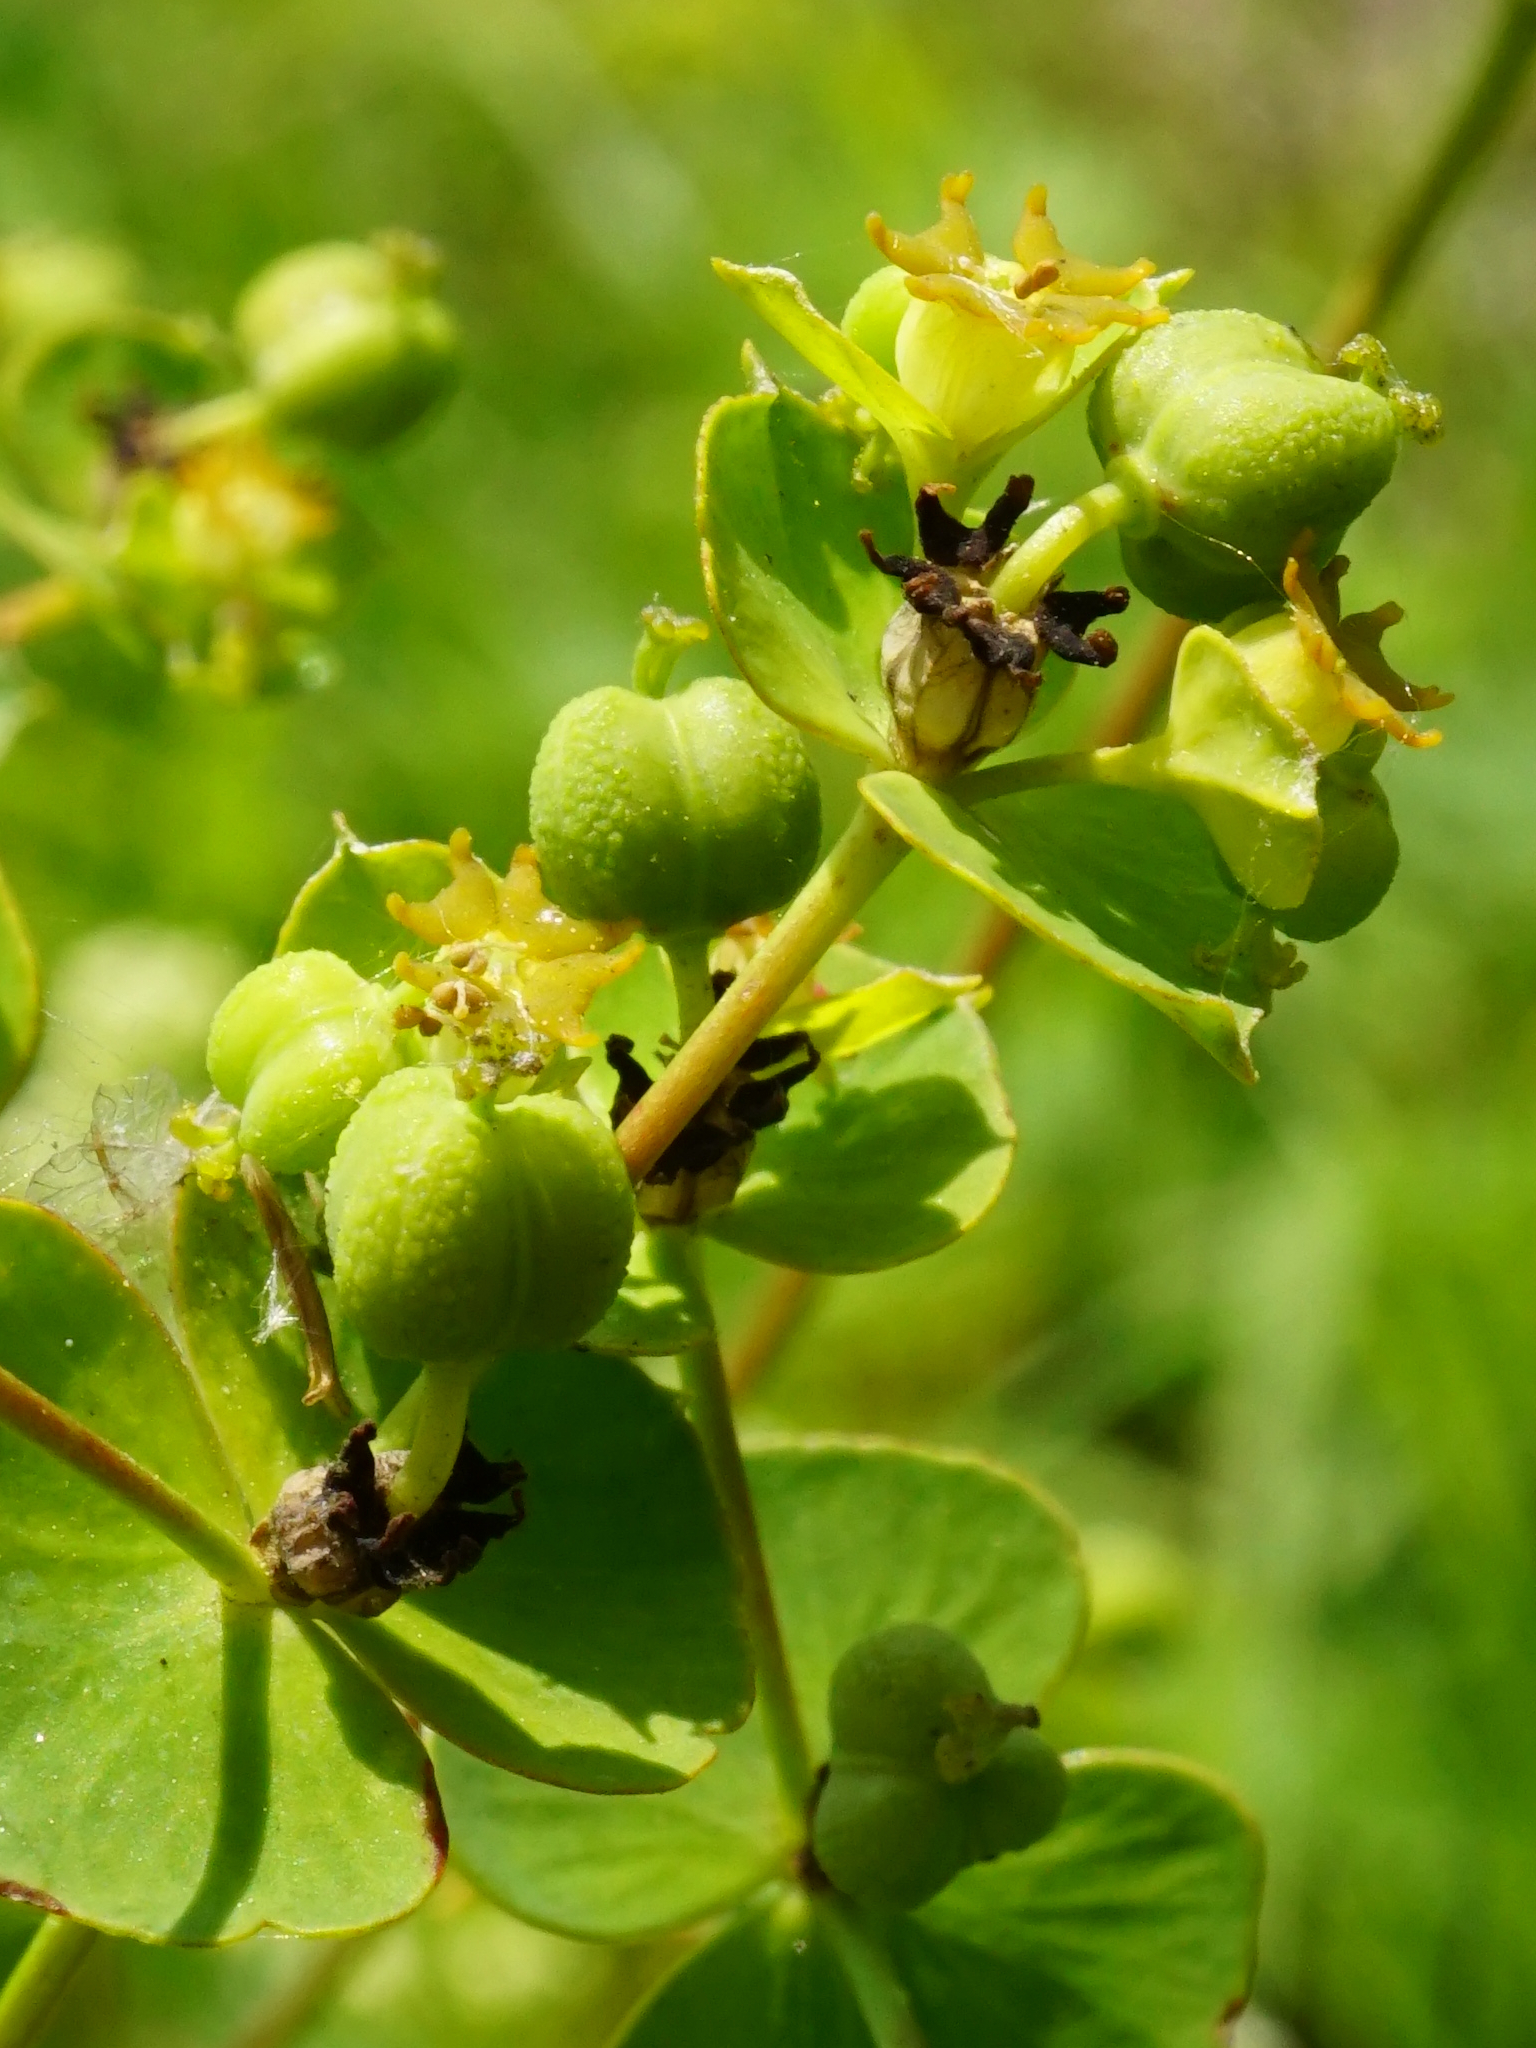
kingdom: Plantae
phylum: Tracheophyta
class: Magnoliopsida
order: Malpighiales
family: Euphorbiaceae
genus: Euphorbia
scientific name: Euphorbia virgata
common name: Leafy spurge
